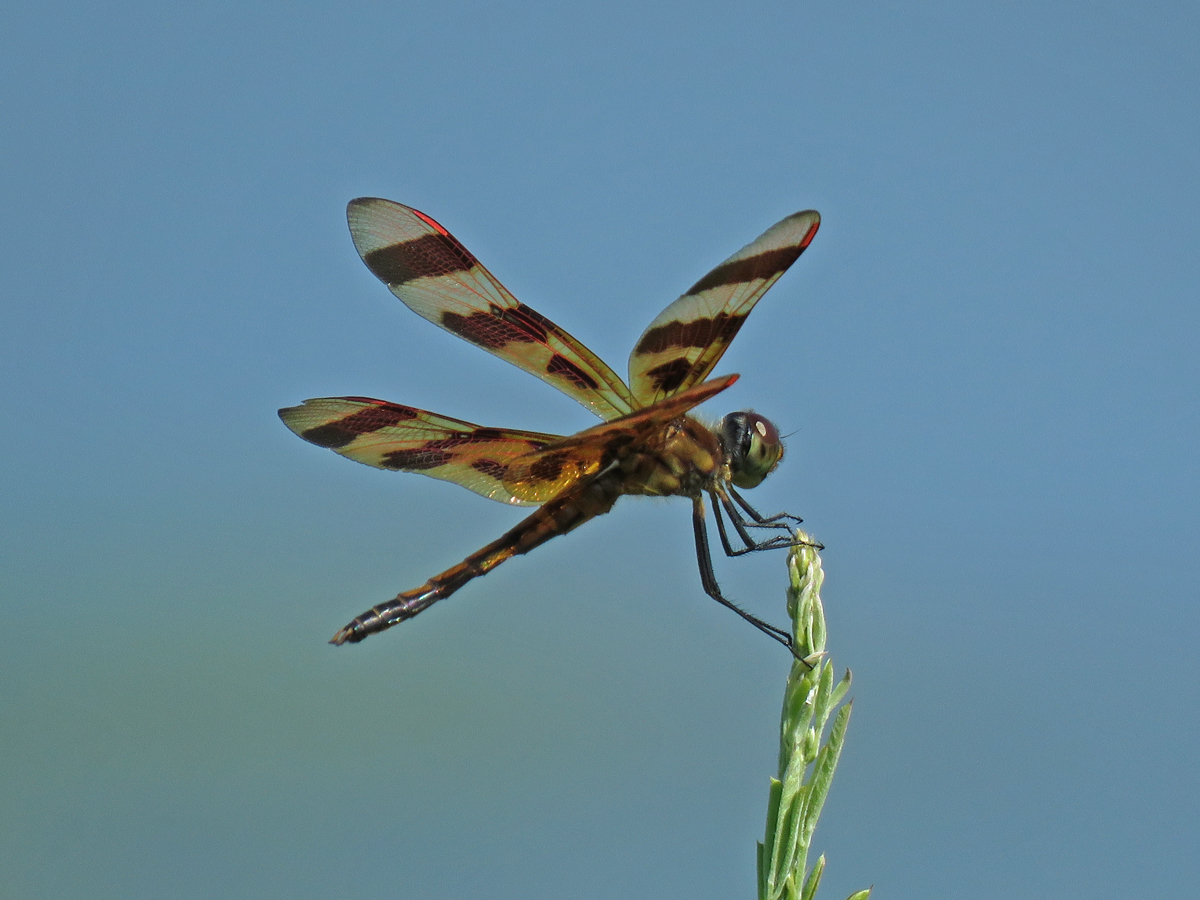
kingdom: Animalia
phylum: Arthropoda
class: Insecta
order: Odonata
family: Libellulidae
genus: Celithemis
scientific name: Celithemis eponina
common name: Halloween pennant
